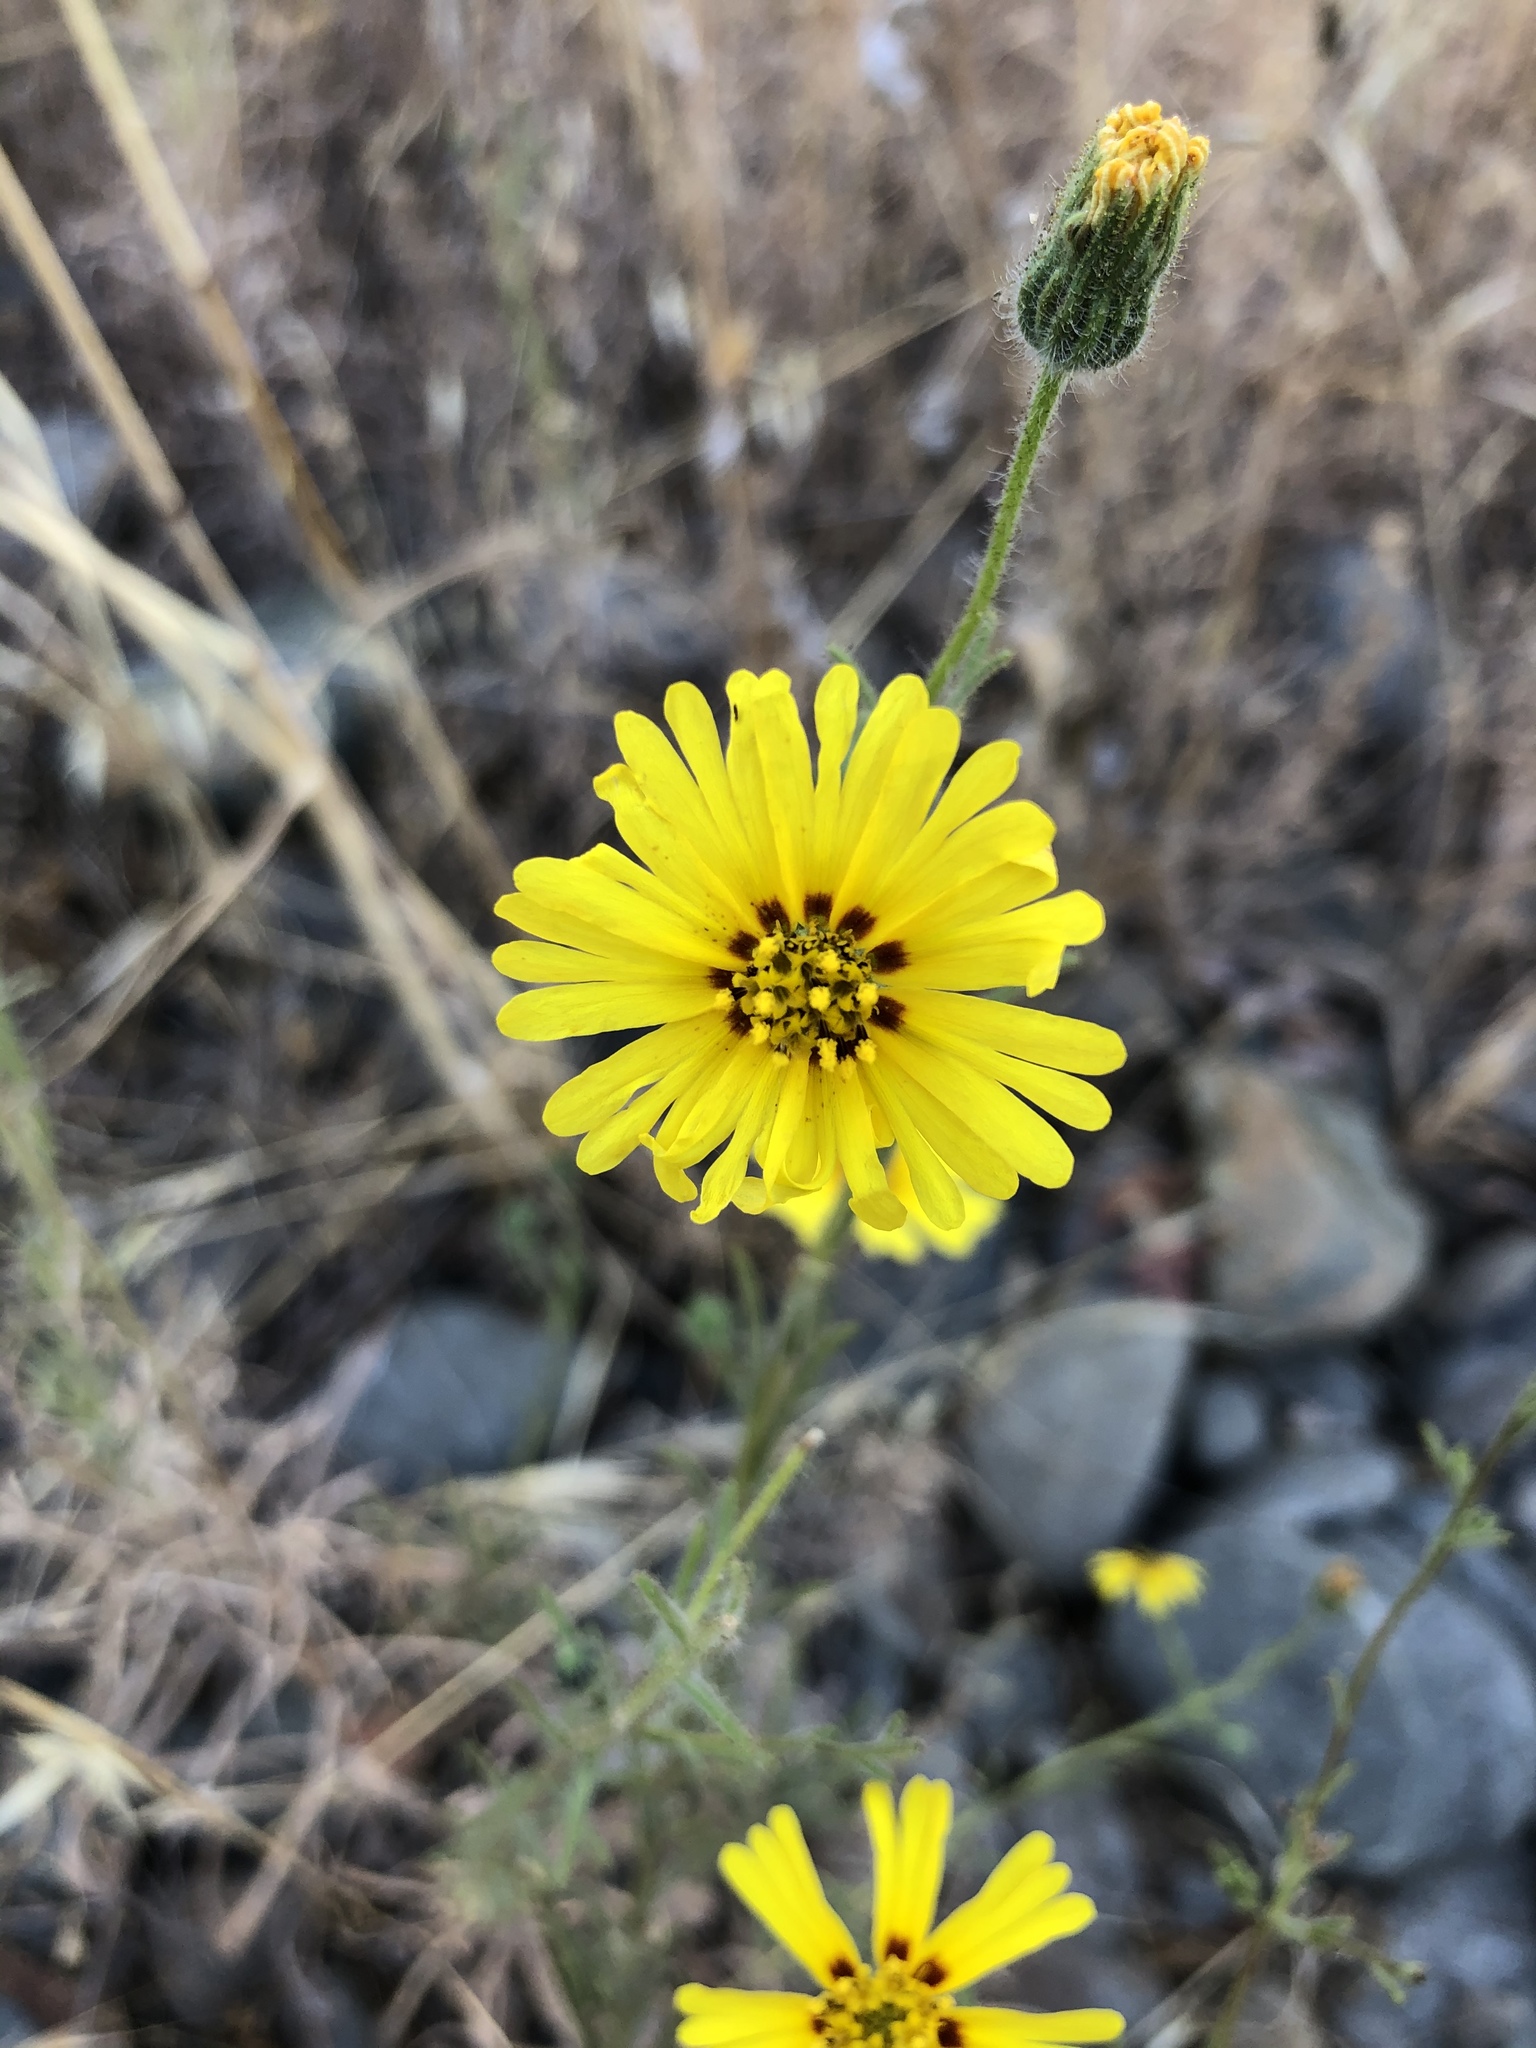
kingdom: Plantae
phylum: Tracheophyta
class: Magnoliopsida
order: Asterales
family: Asteraceae
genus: Madia
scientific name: Madia elegans
